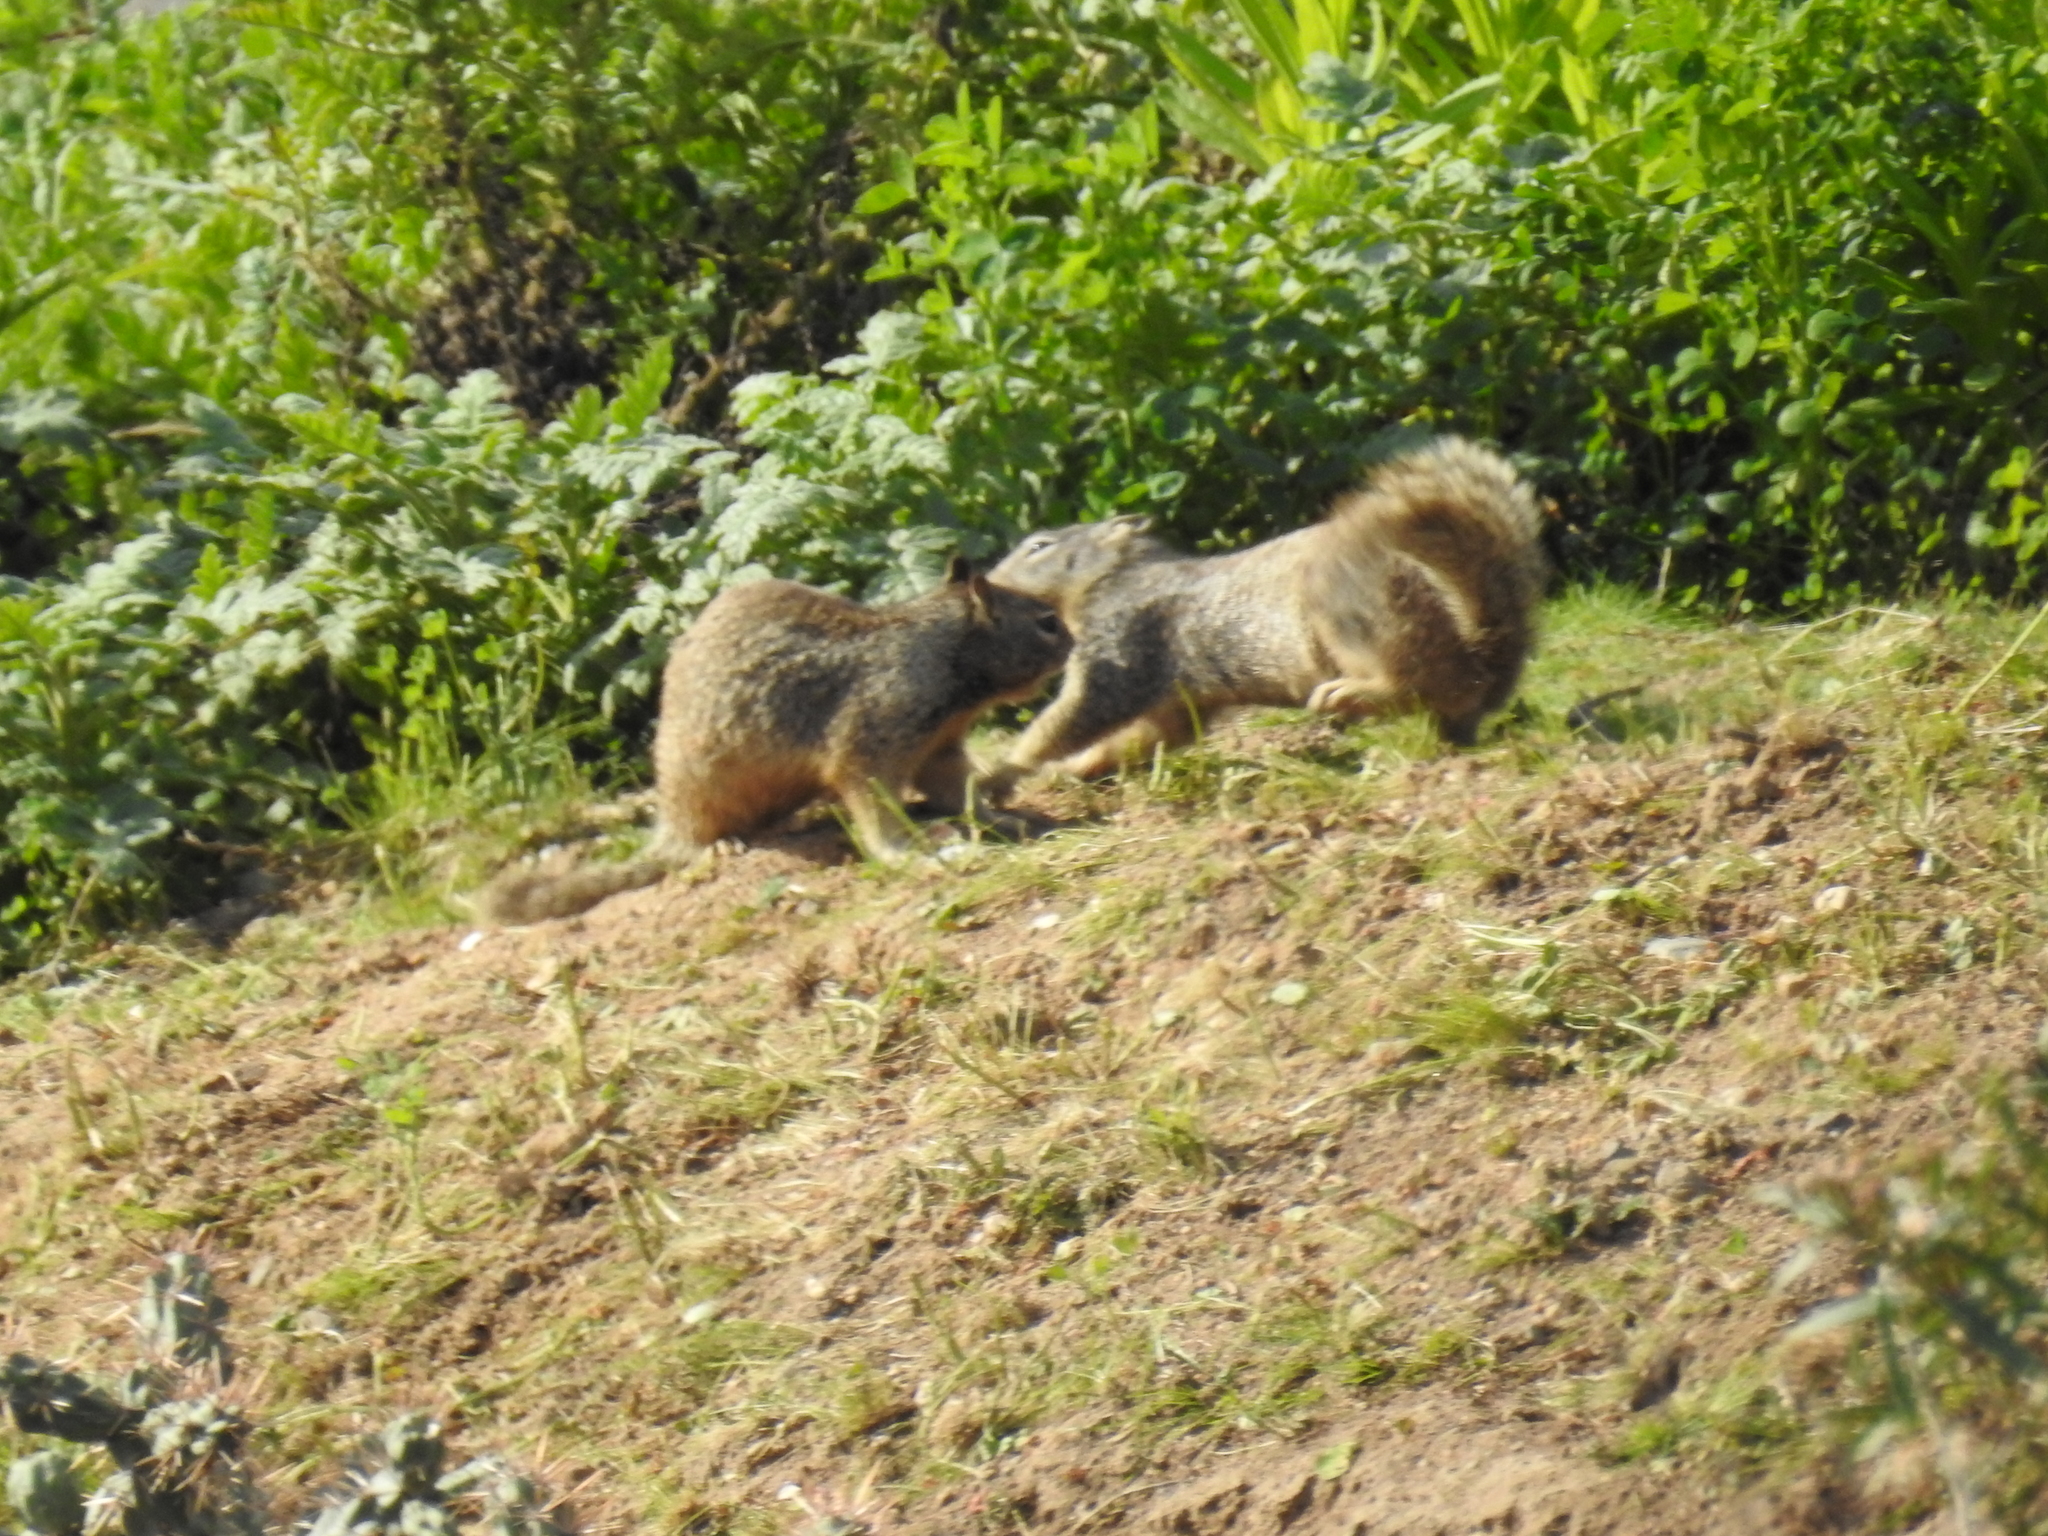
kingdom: Animalia
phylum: Chordata
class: Mammalia
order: Rodentia
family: Sciuridae
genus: Otospermophilus
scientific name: Otospermophilus beecheyi
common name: California ground squirrel
